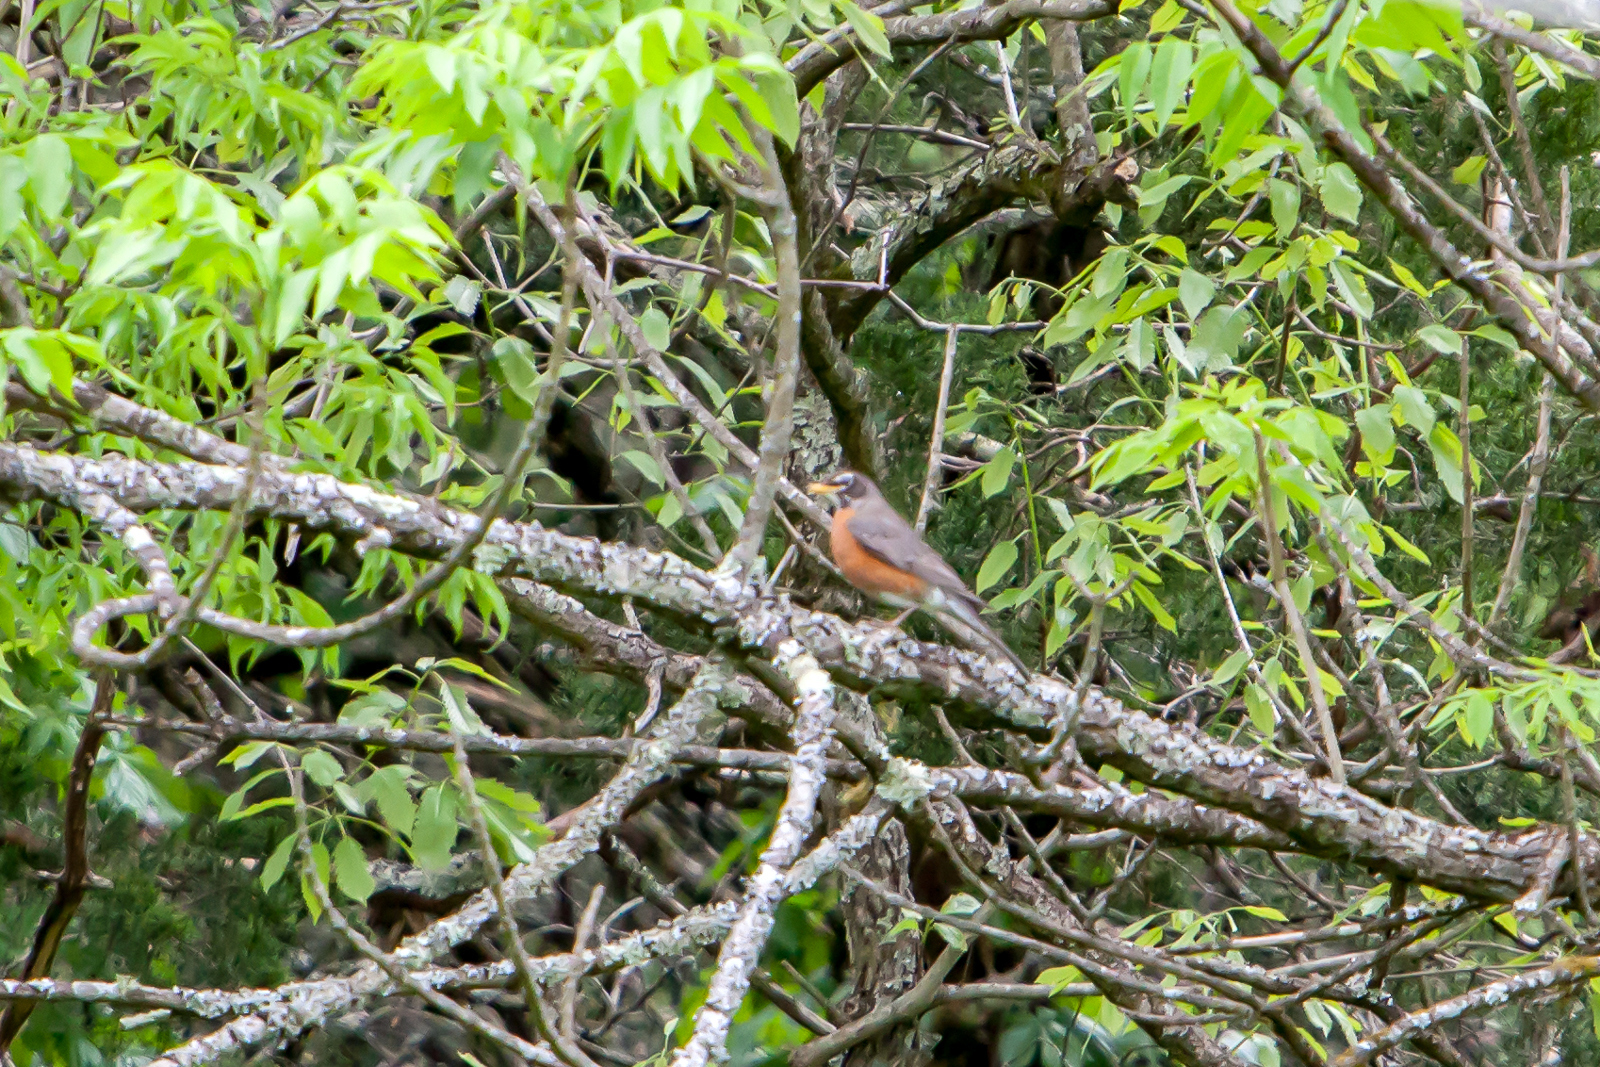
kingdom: Animalia
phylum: Chordata
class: Aves
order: Passeriformes
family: Turdidae
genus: Turdus
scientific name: Turdus migratorius
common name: American robin
